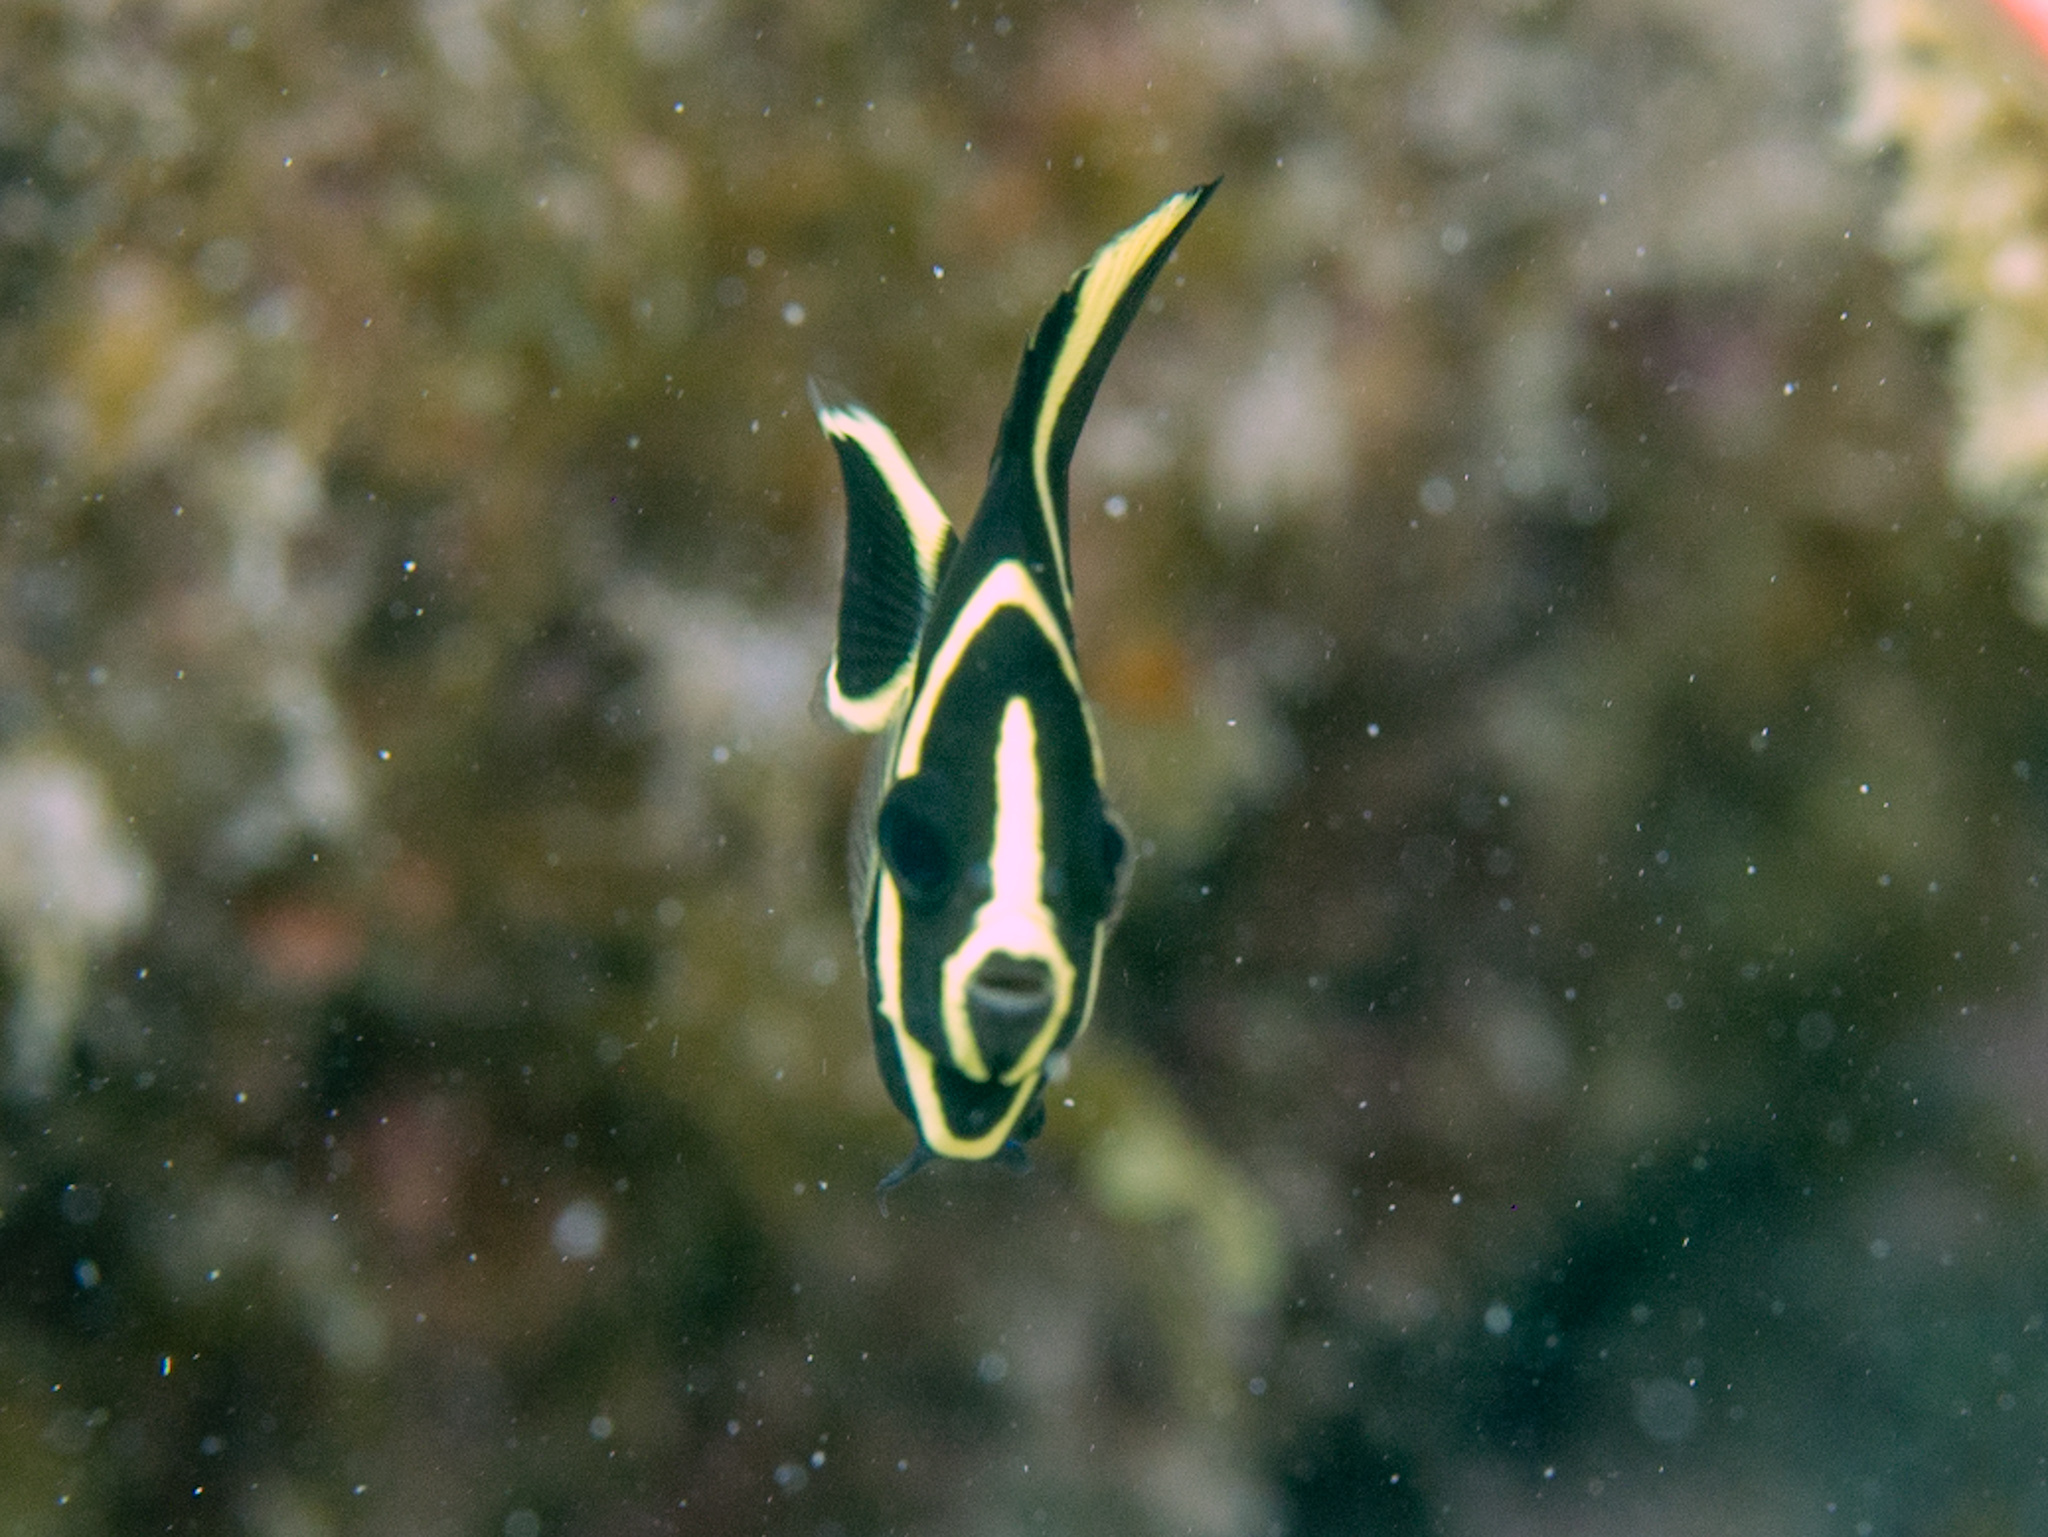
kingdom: Animalia
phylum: Chordata
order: Perciformes
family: Pomacanthidae
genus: Pomacanthus
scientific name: Pomacanthus paru
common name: French angelfish
